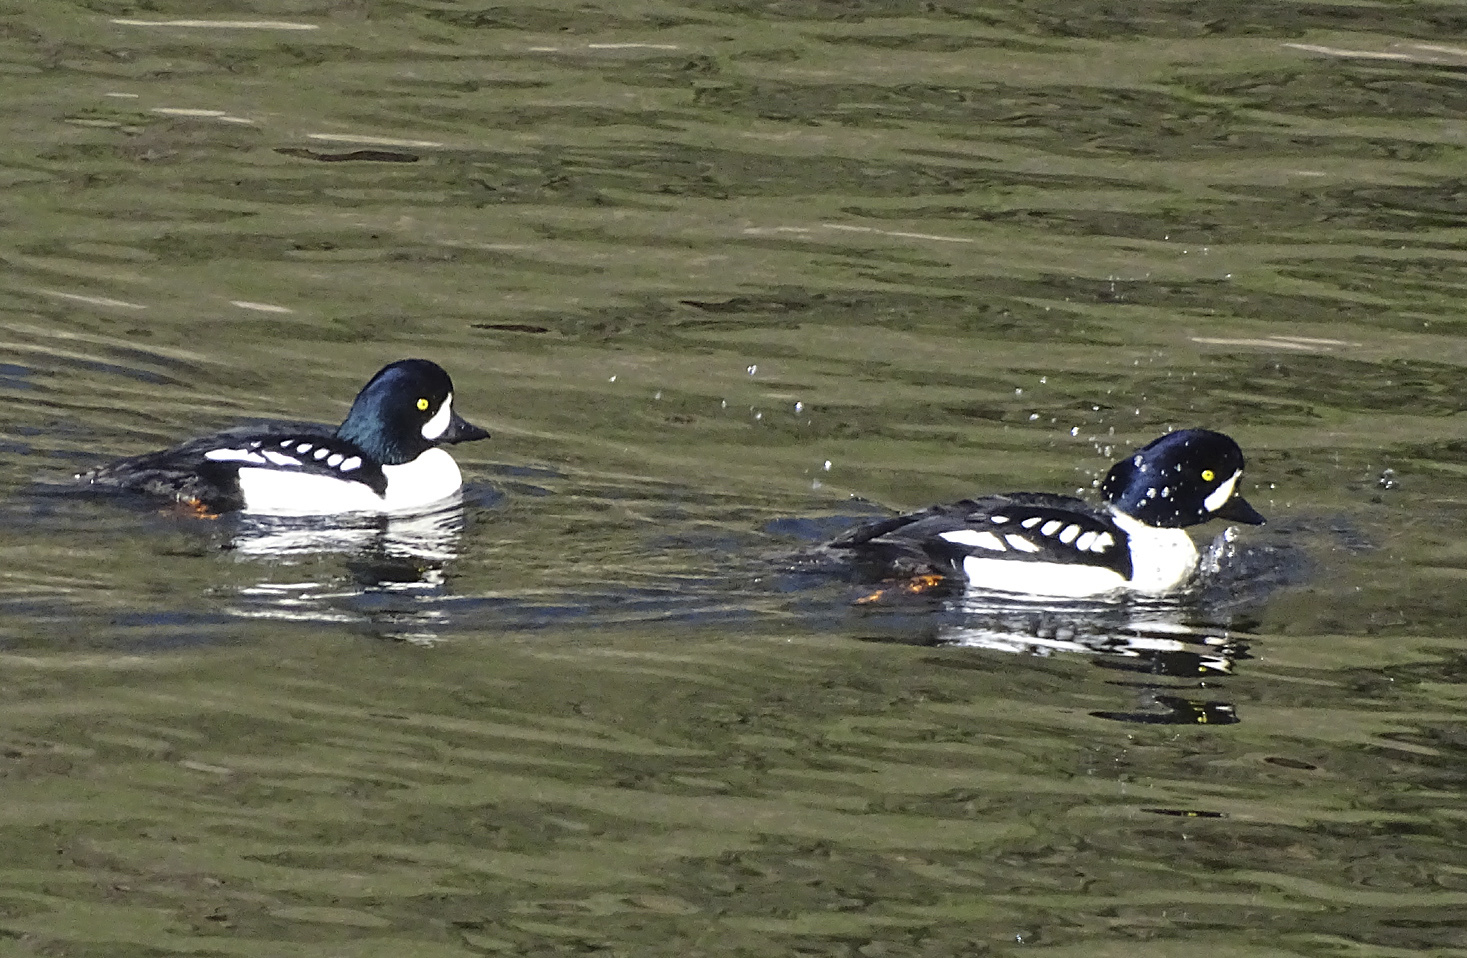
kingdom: Animalia
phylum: Chordata
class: Aves
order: Anseriformes
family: Anatidae
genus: Bucephala
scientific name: Bucephala islandica
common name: Barrow's goldeneye
